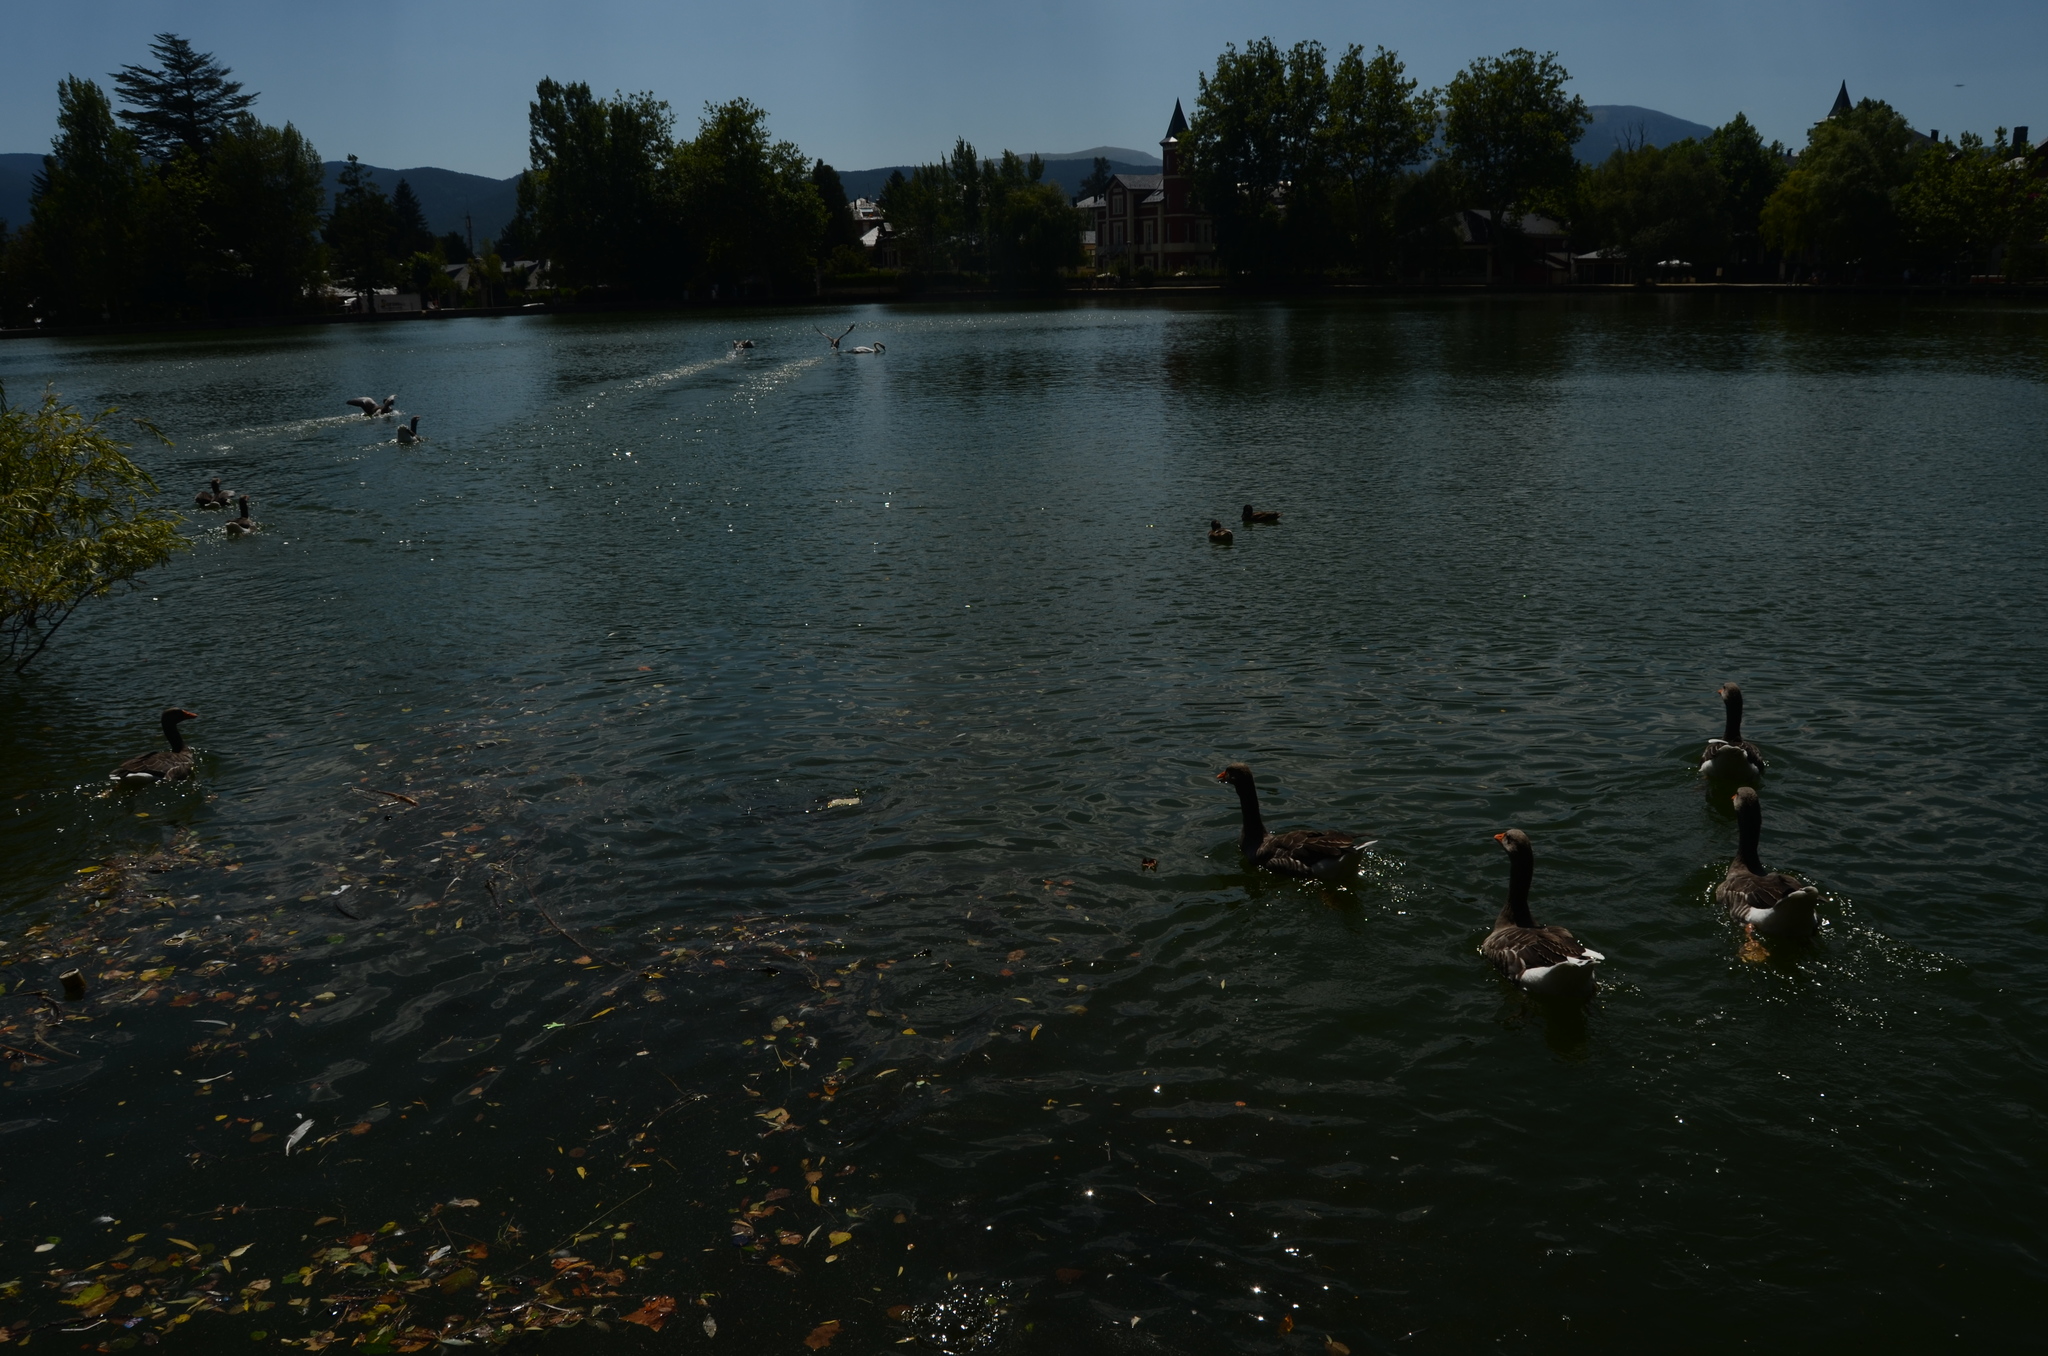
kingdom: Animalia
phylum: Chordata
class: Aves
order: Anseriformes
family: Anatidae
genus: Anser
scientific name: Anser anser
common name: Greylag goose
